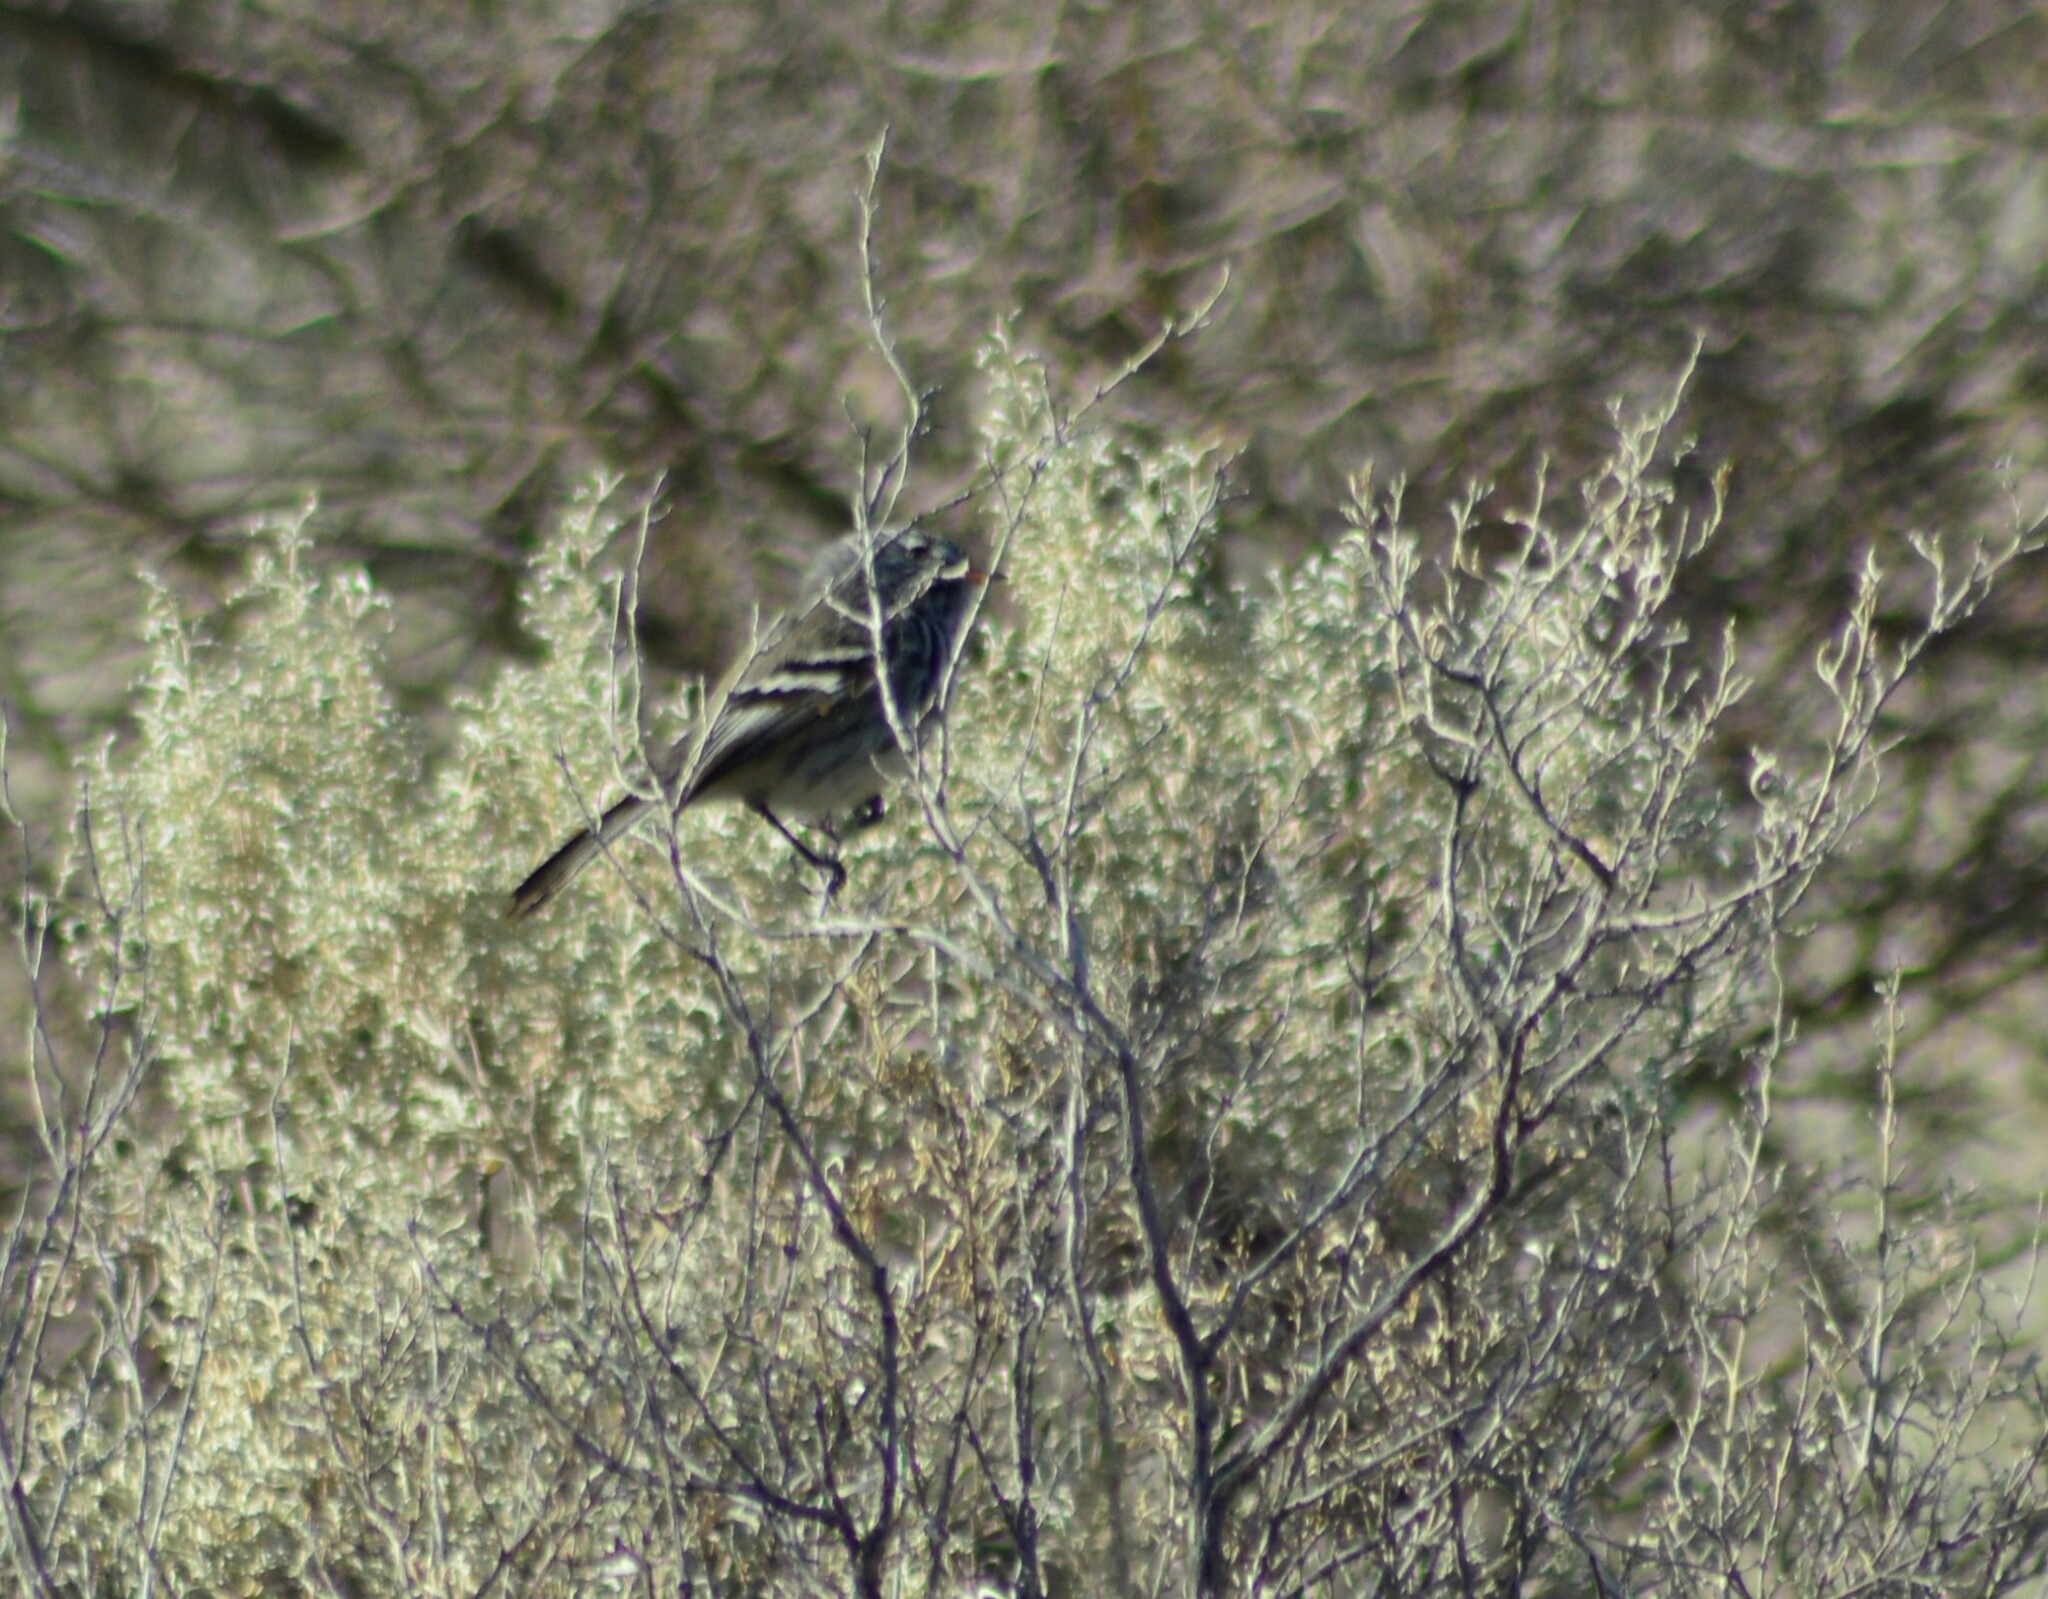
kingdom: Animalia
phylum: Chordata
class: Aves
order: Passeriformes
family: Tyrannidae
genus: Anairetes
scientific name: Anairetes flavirostris
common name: Yellow-billed tit-tyrant
